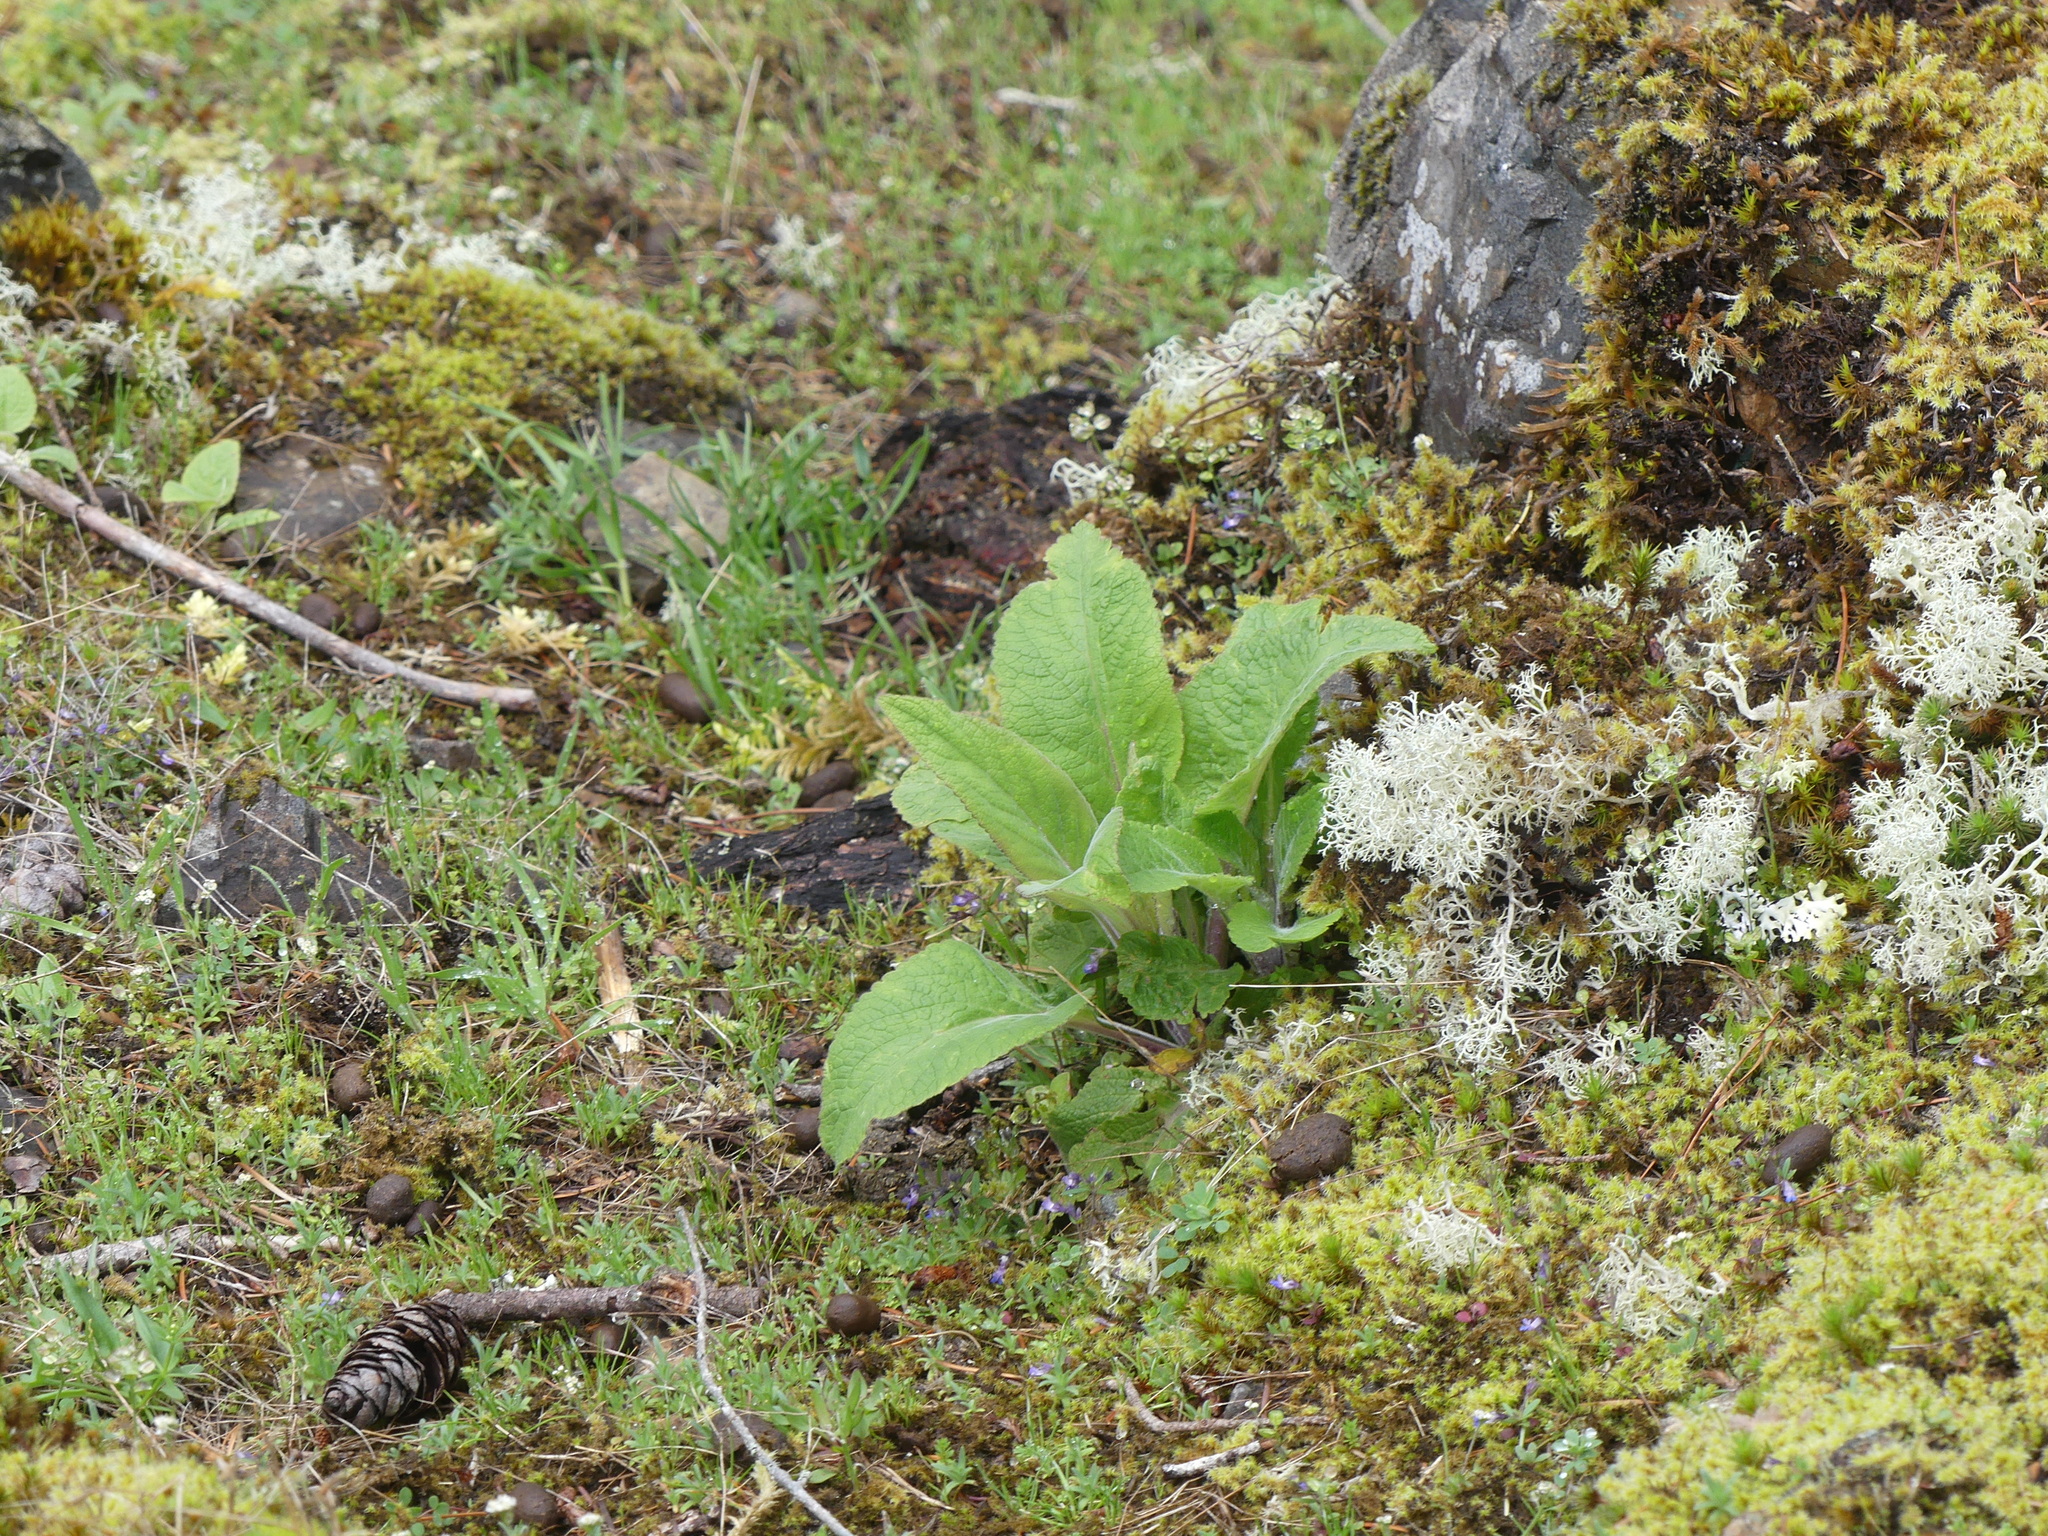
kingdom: Plantae
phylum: Tracheophyta
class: Magnoliopsida
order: Lamiales
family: Plantaginaceae
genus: Digitalis
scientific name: Digitalis purpurea
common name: Foxglove
